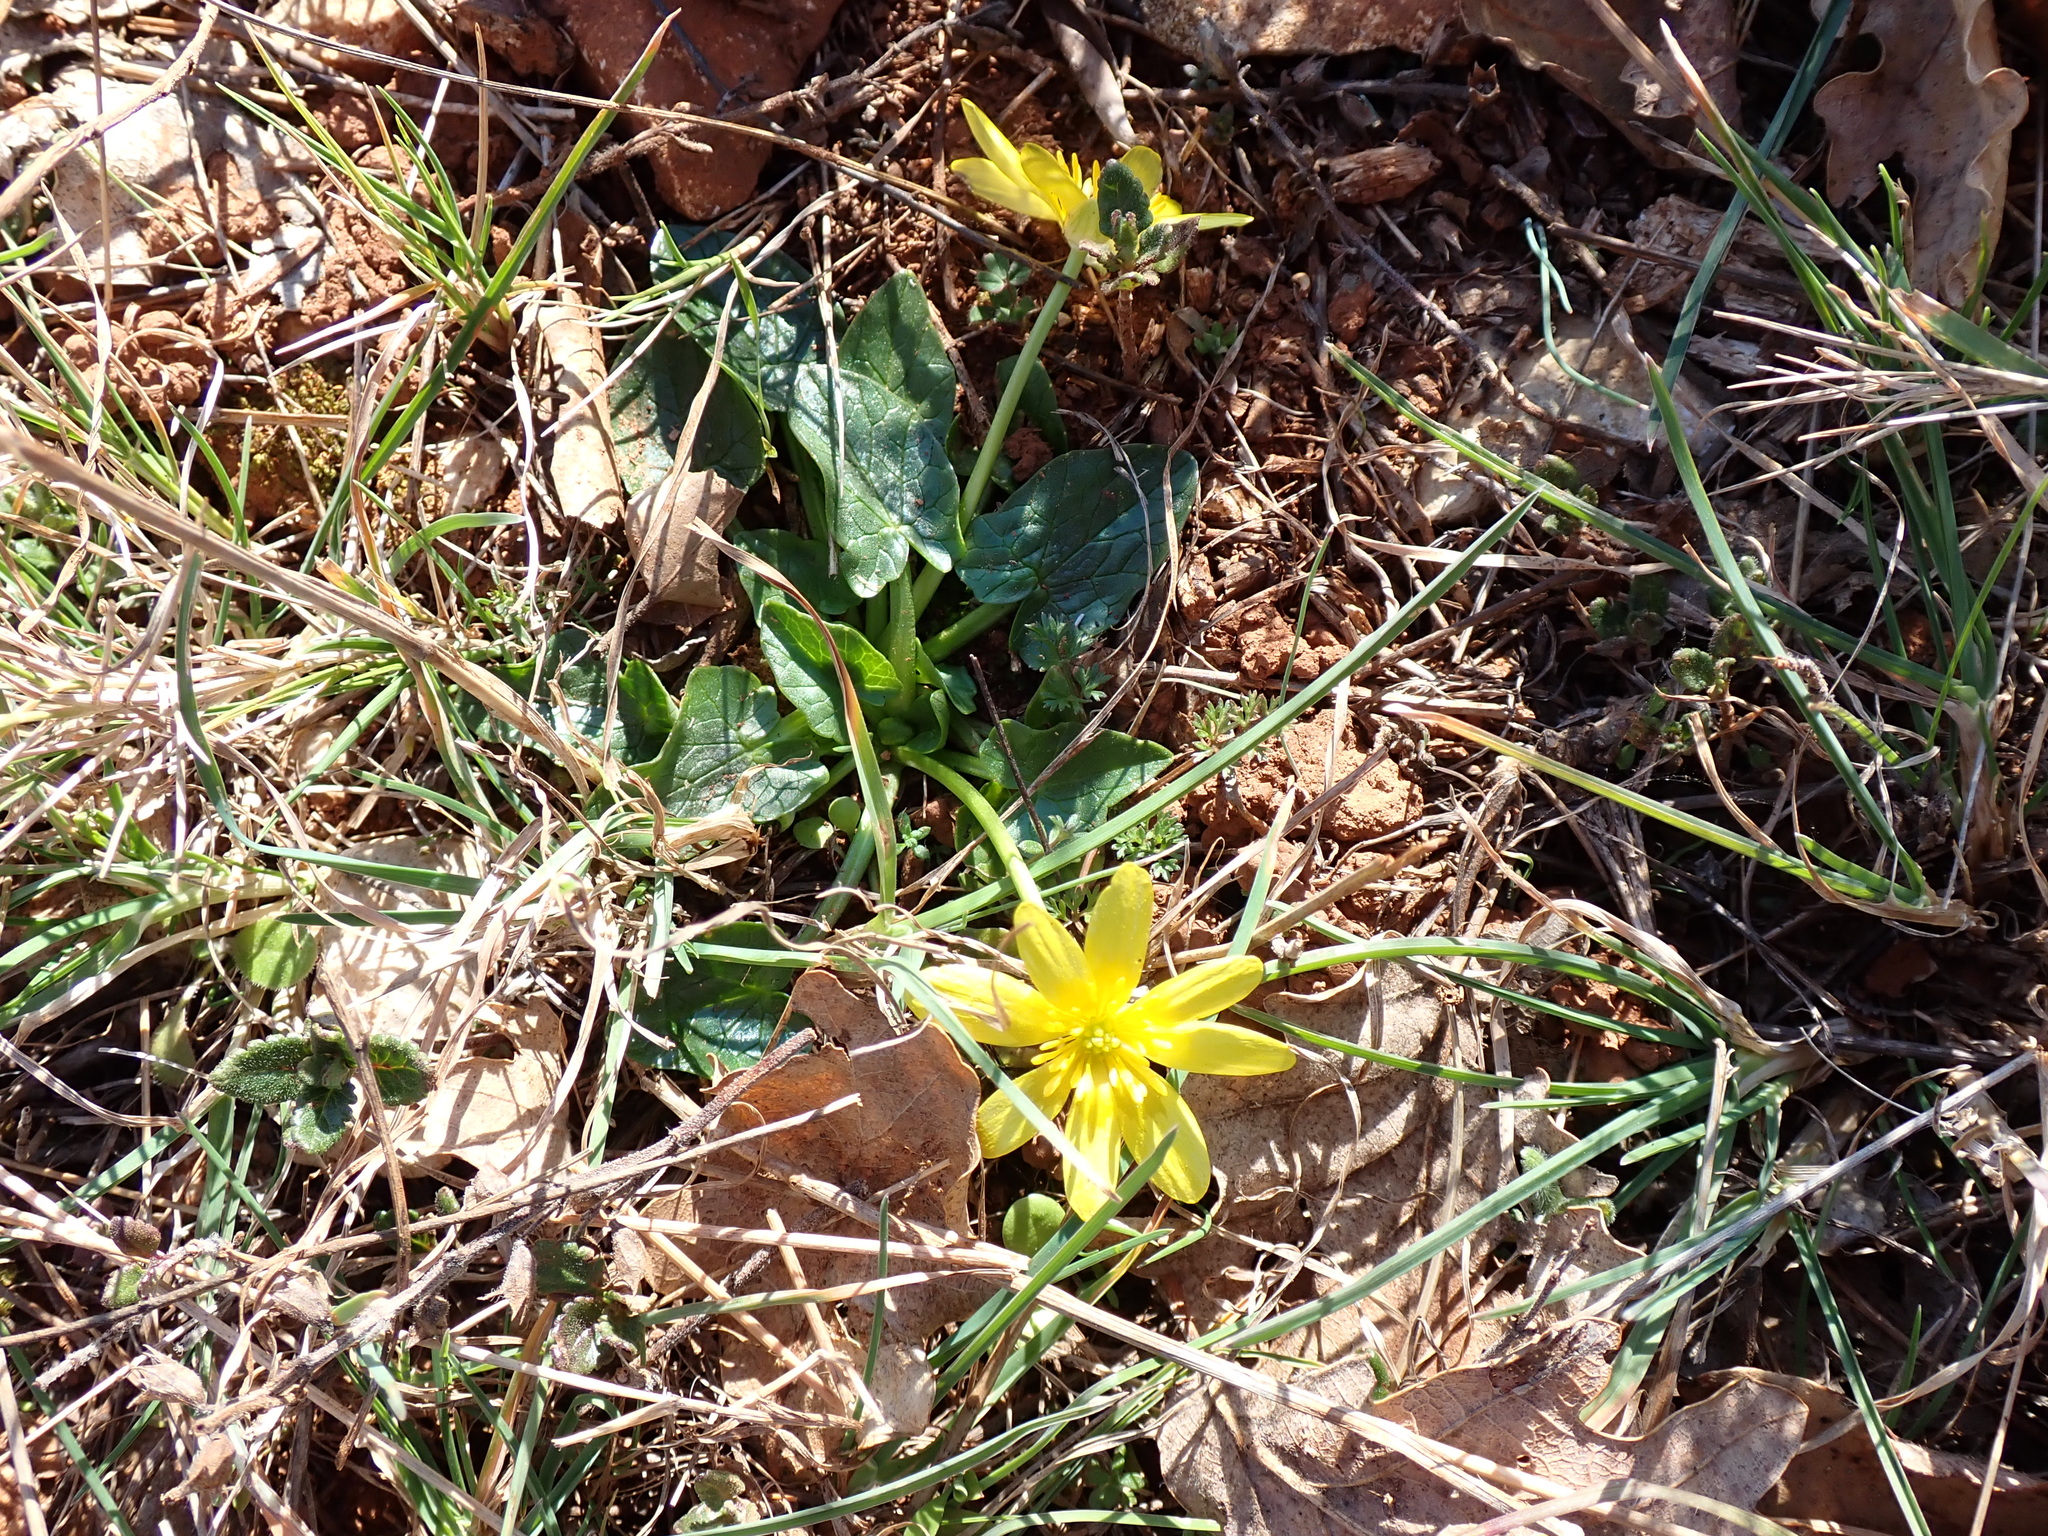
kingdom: Plantae
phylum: Tracheophyta
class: Magnoliopsida
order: Ranunculales
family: Ranunculaceae
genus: Ficaria
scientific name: Ficaria verna
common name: Lesser celandine
